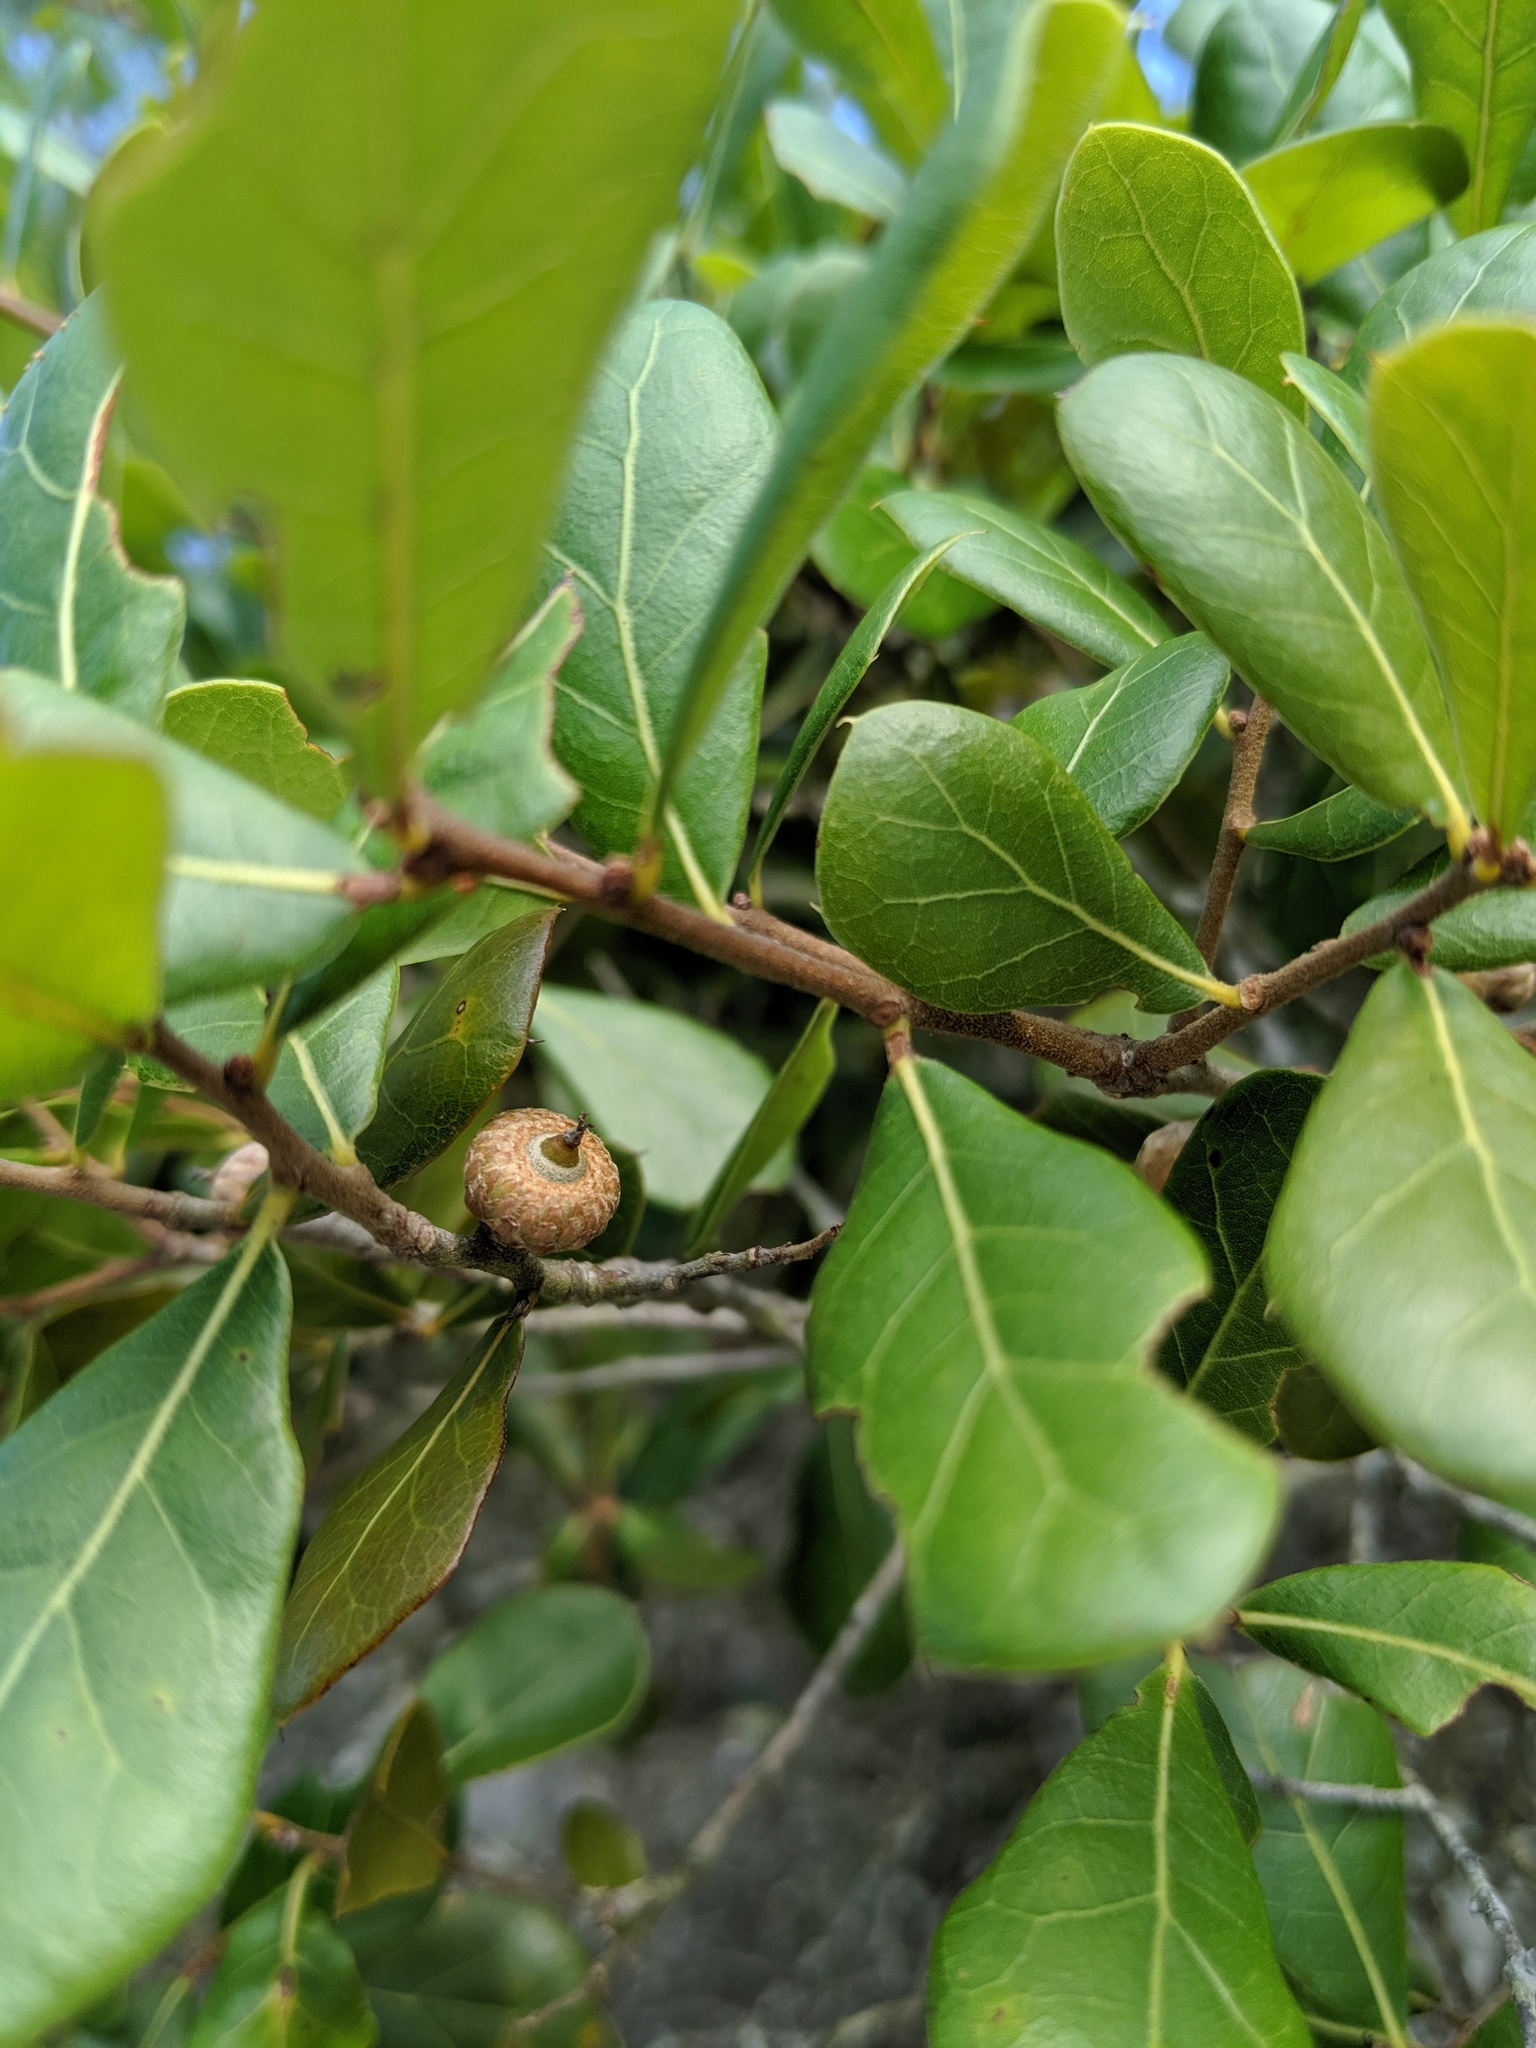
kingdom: Plantae
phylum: Tracheophyta
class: Magnoliopsida
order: Fagales
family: Fagaceae
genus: Quercus
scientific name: Quercus myrtifolia
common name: Myrtle oak
